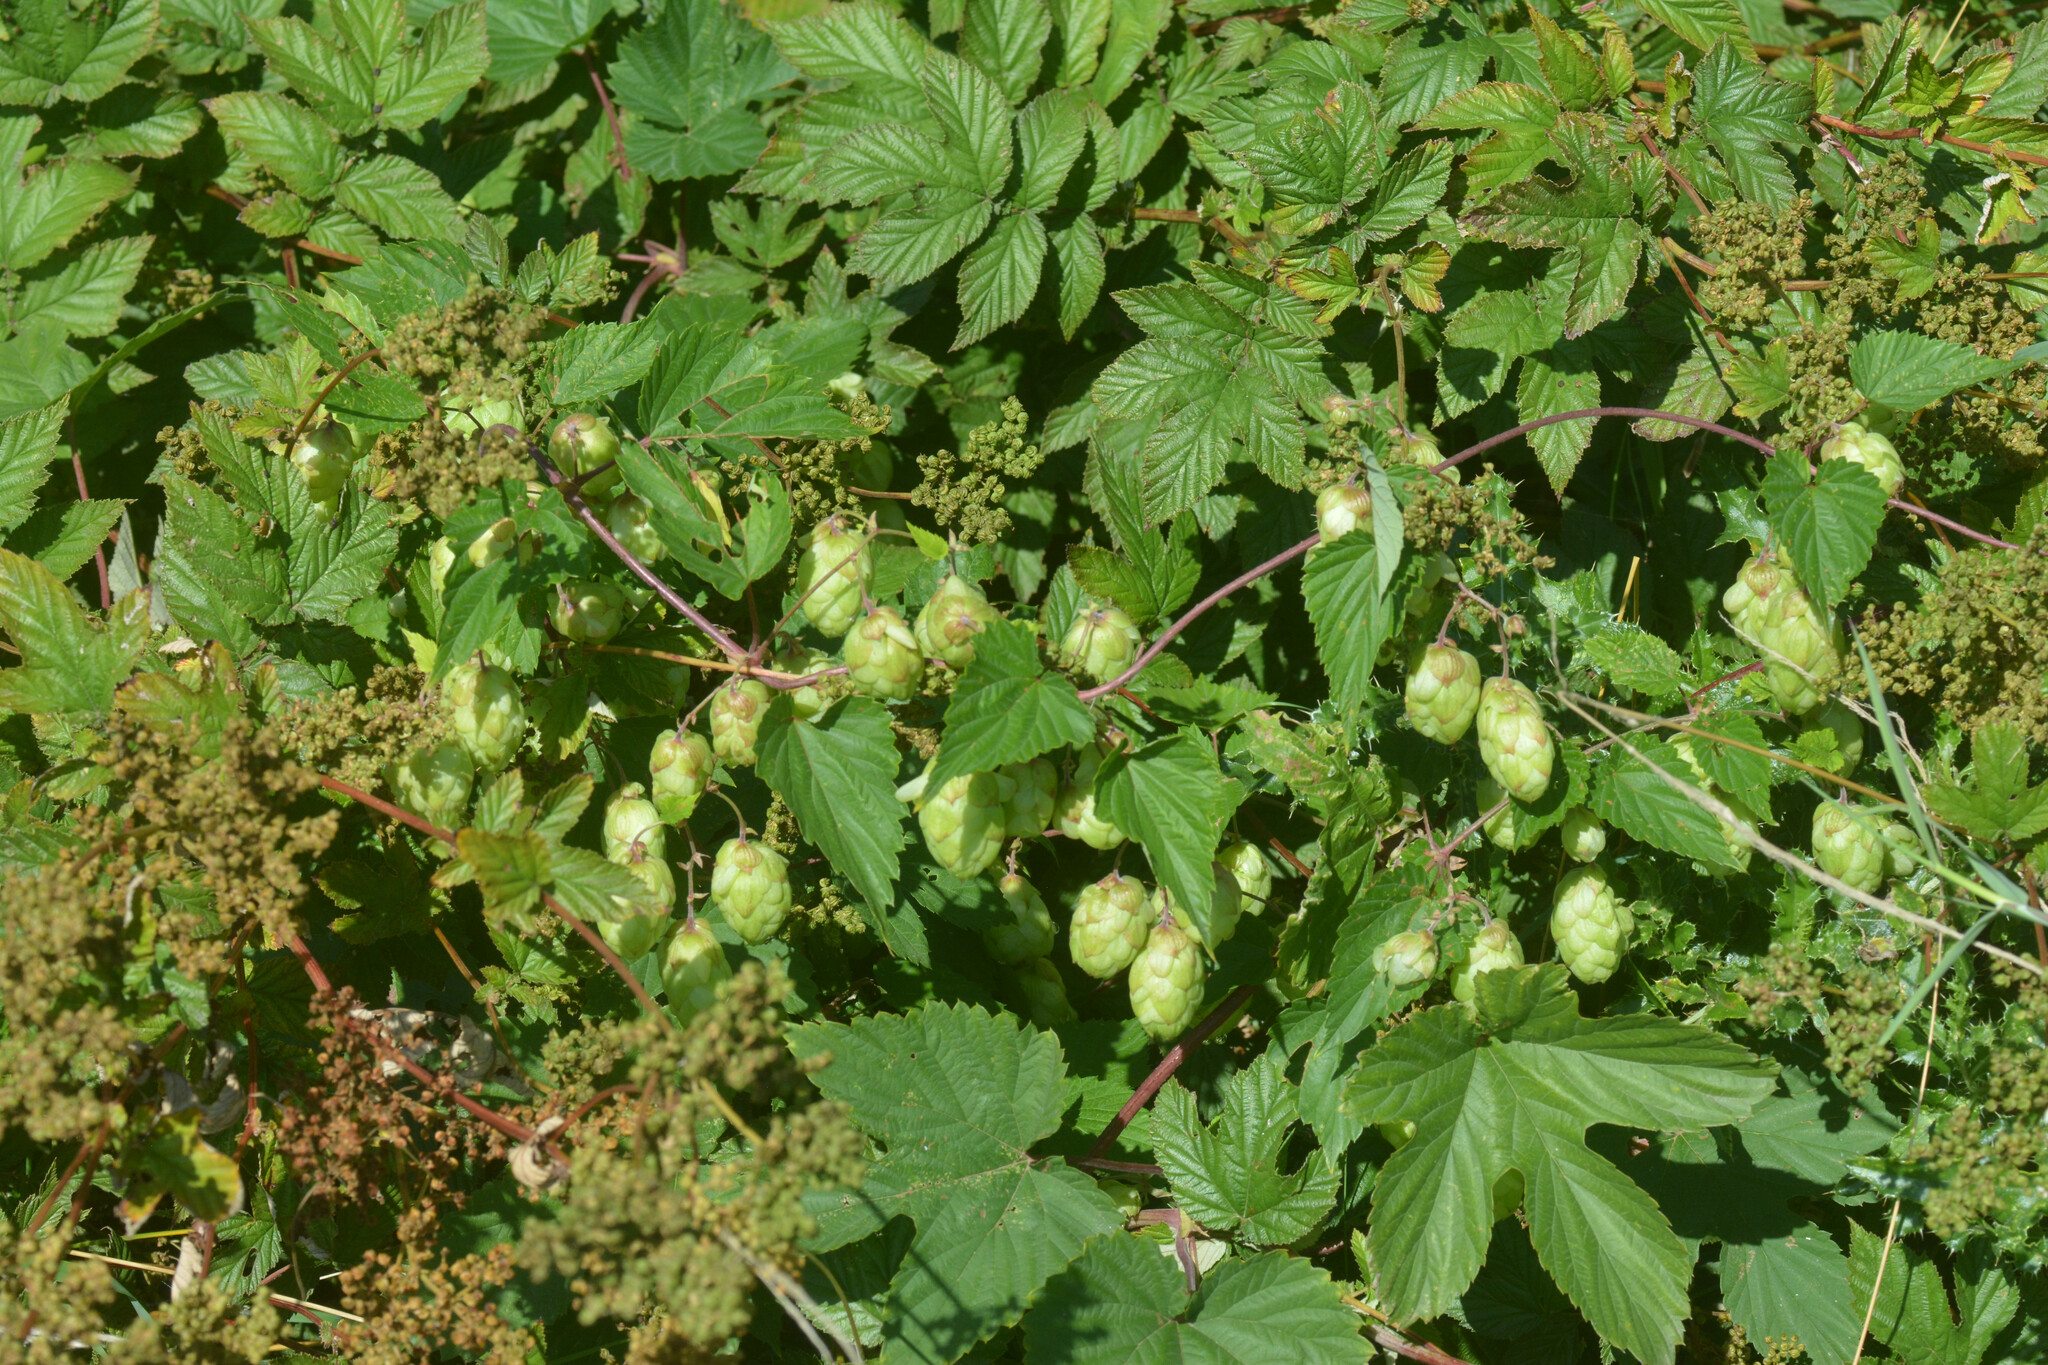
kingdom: Plantae
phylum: Tracheophyta
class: Magnoliopsida
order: Rosales
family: Cannabaceae
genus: Humulus
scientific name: Humulus lupulus
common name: Hop
